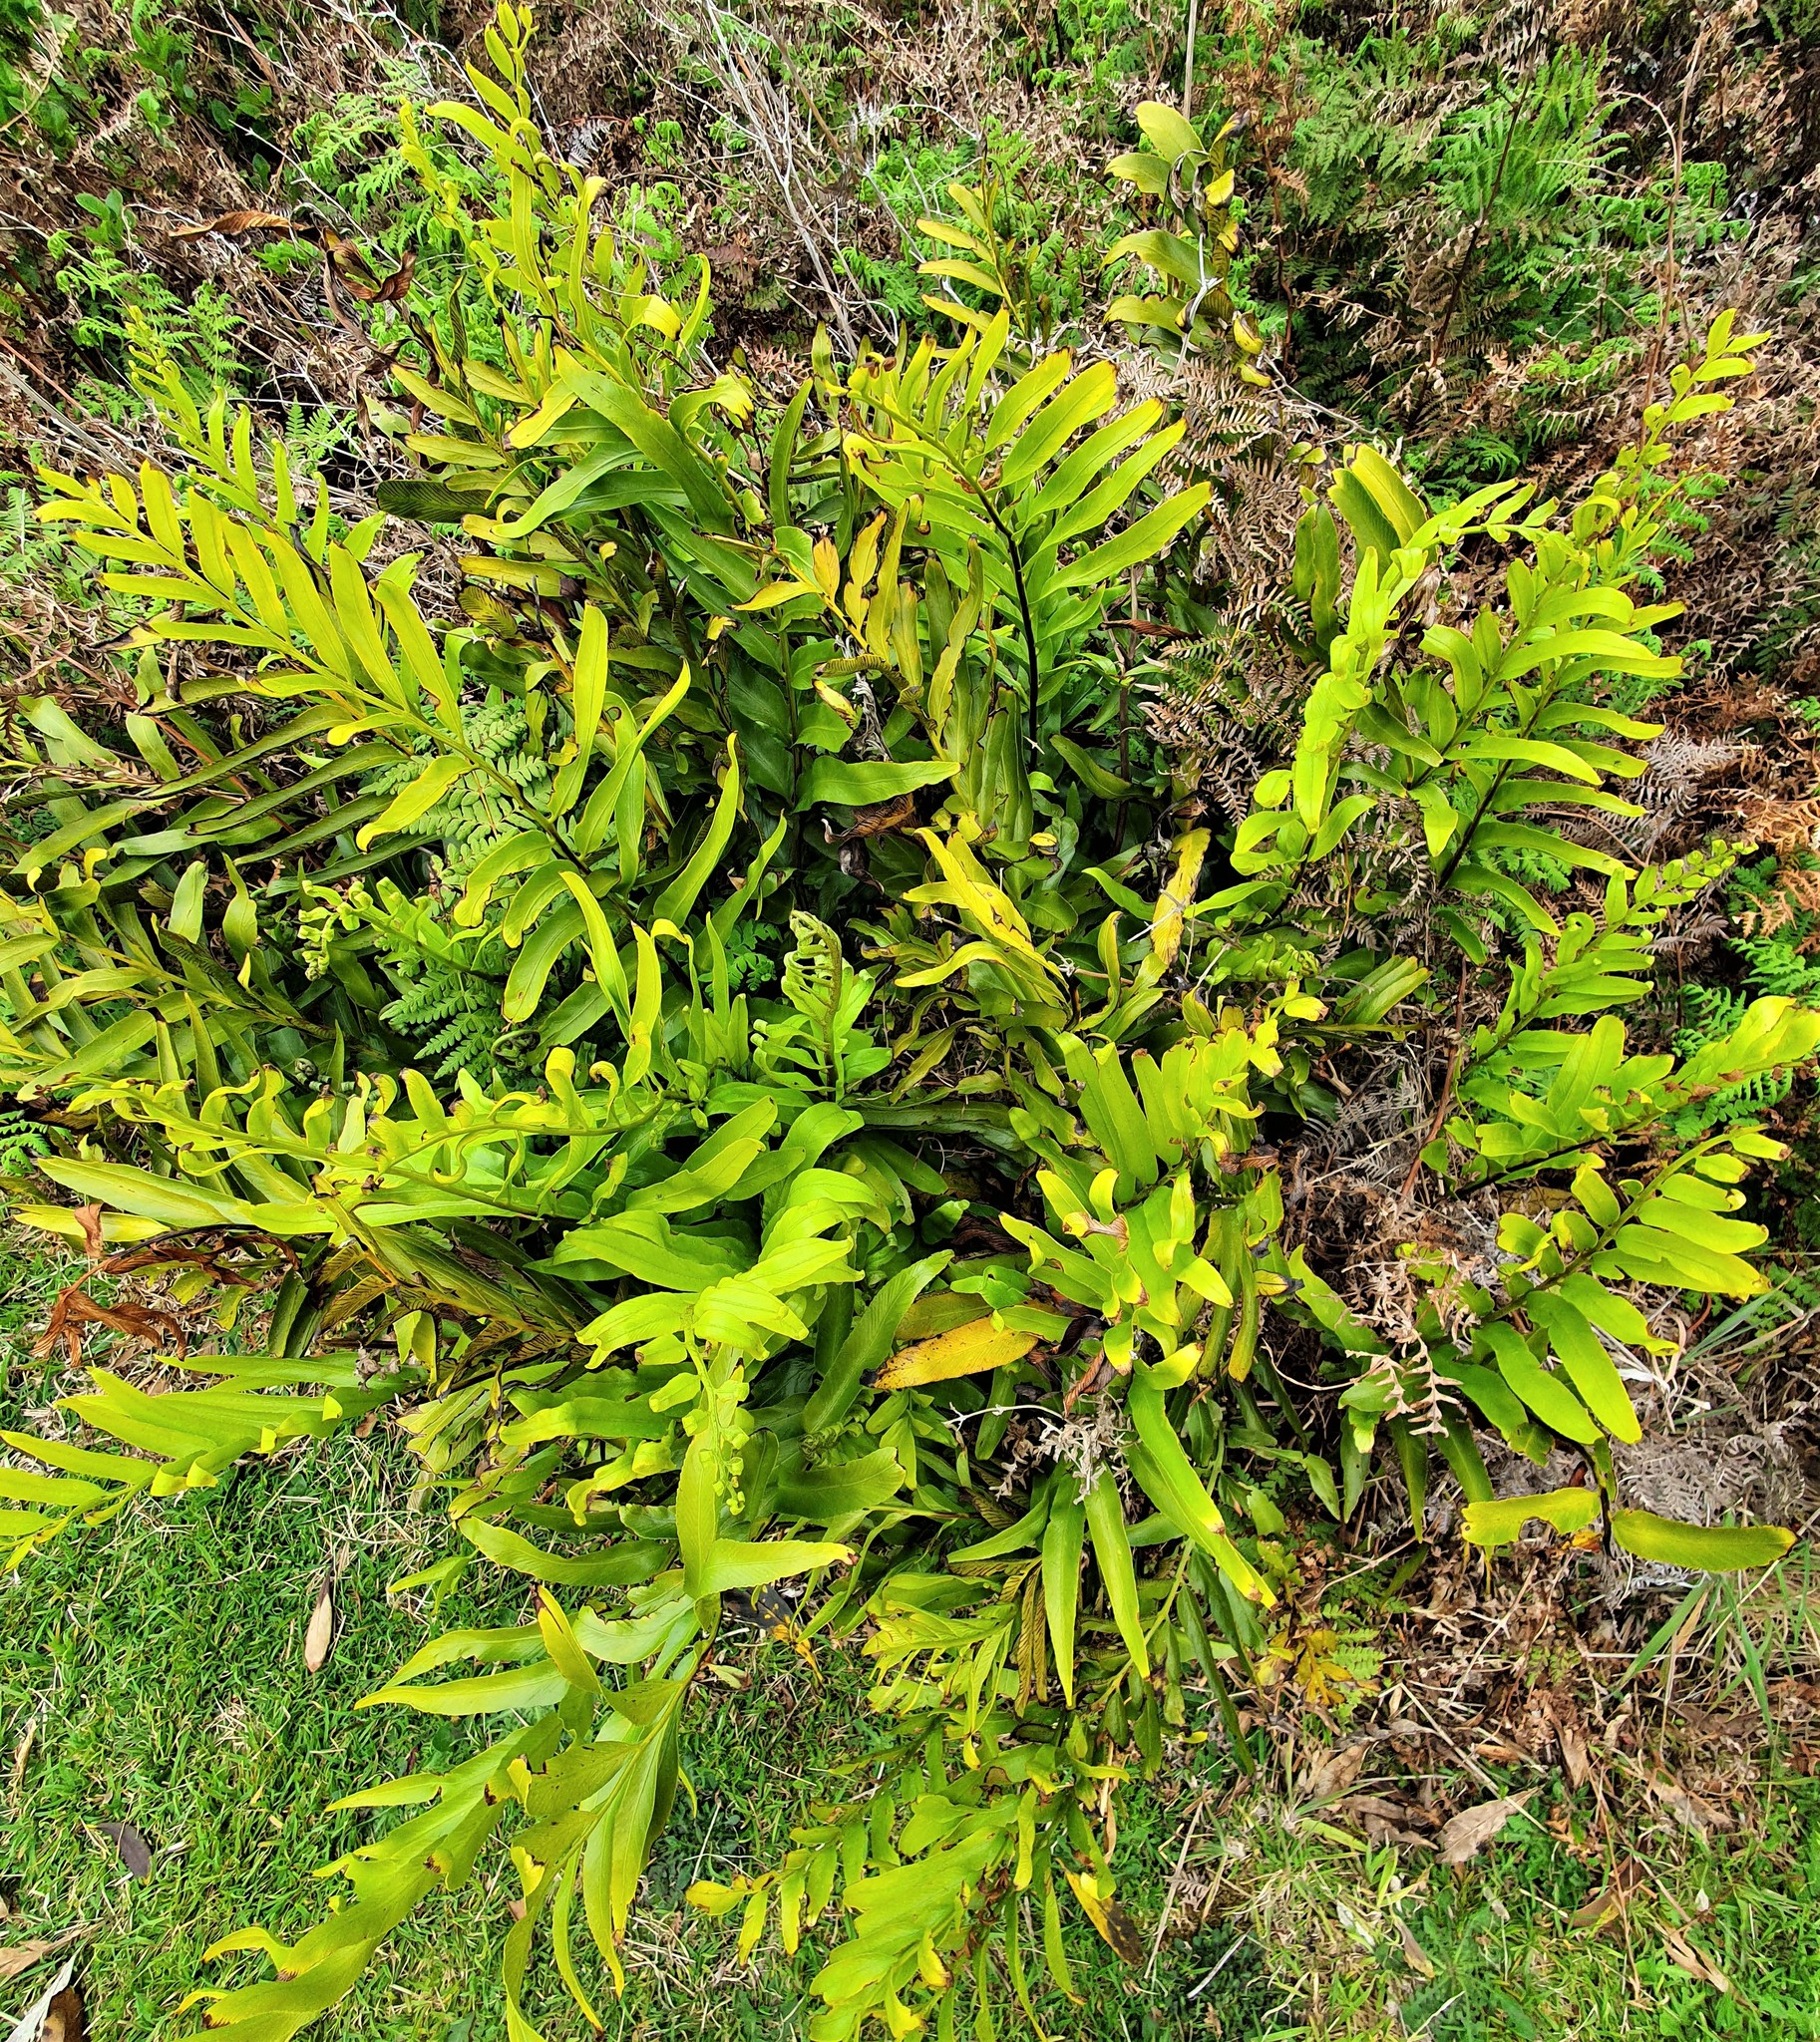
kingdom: Plantae
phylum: Tracheophyta
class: Polypodiopsida
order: Polypodiales
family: Aspleniaceae
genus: Asplenium
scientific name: Asplenium oblongifolium
